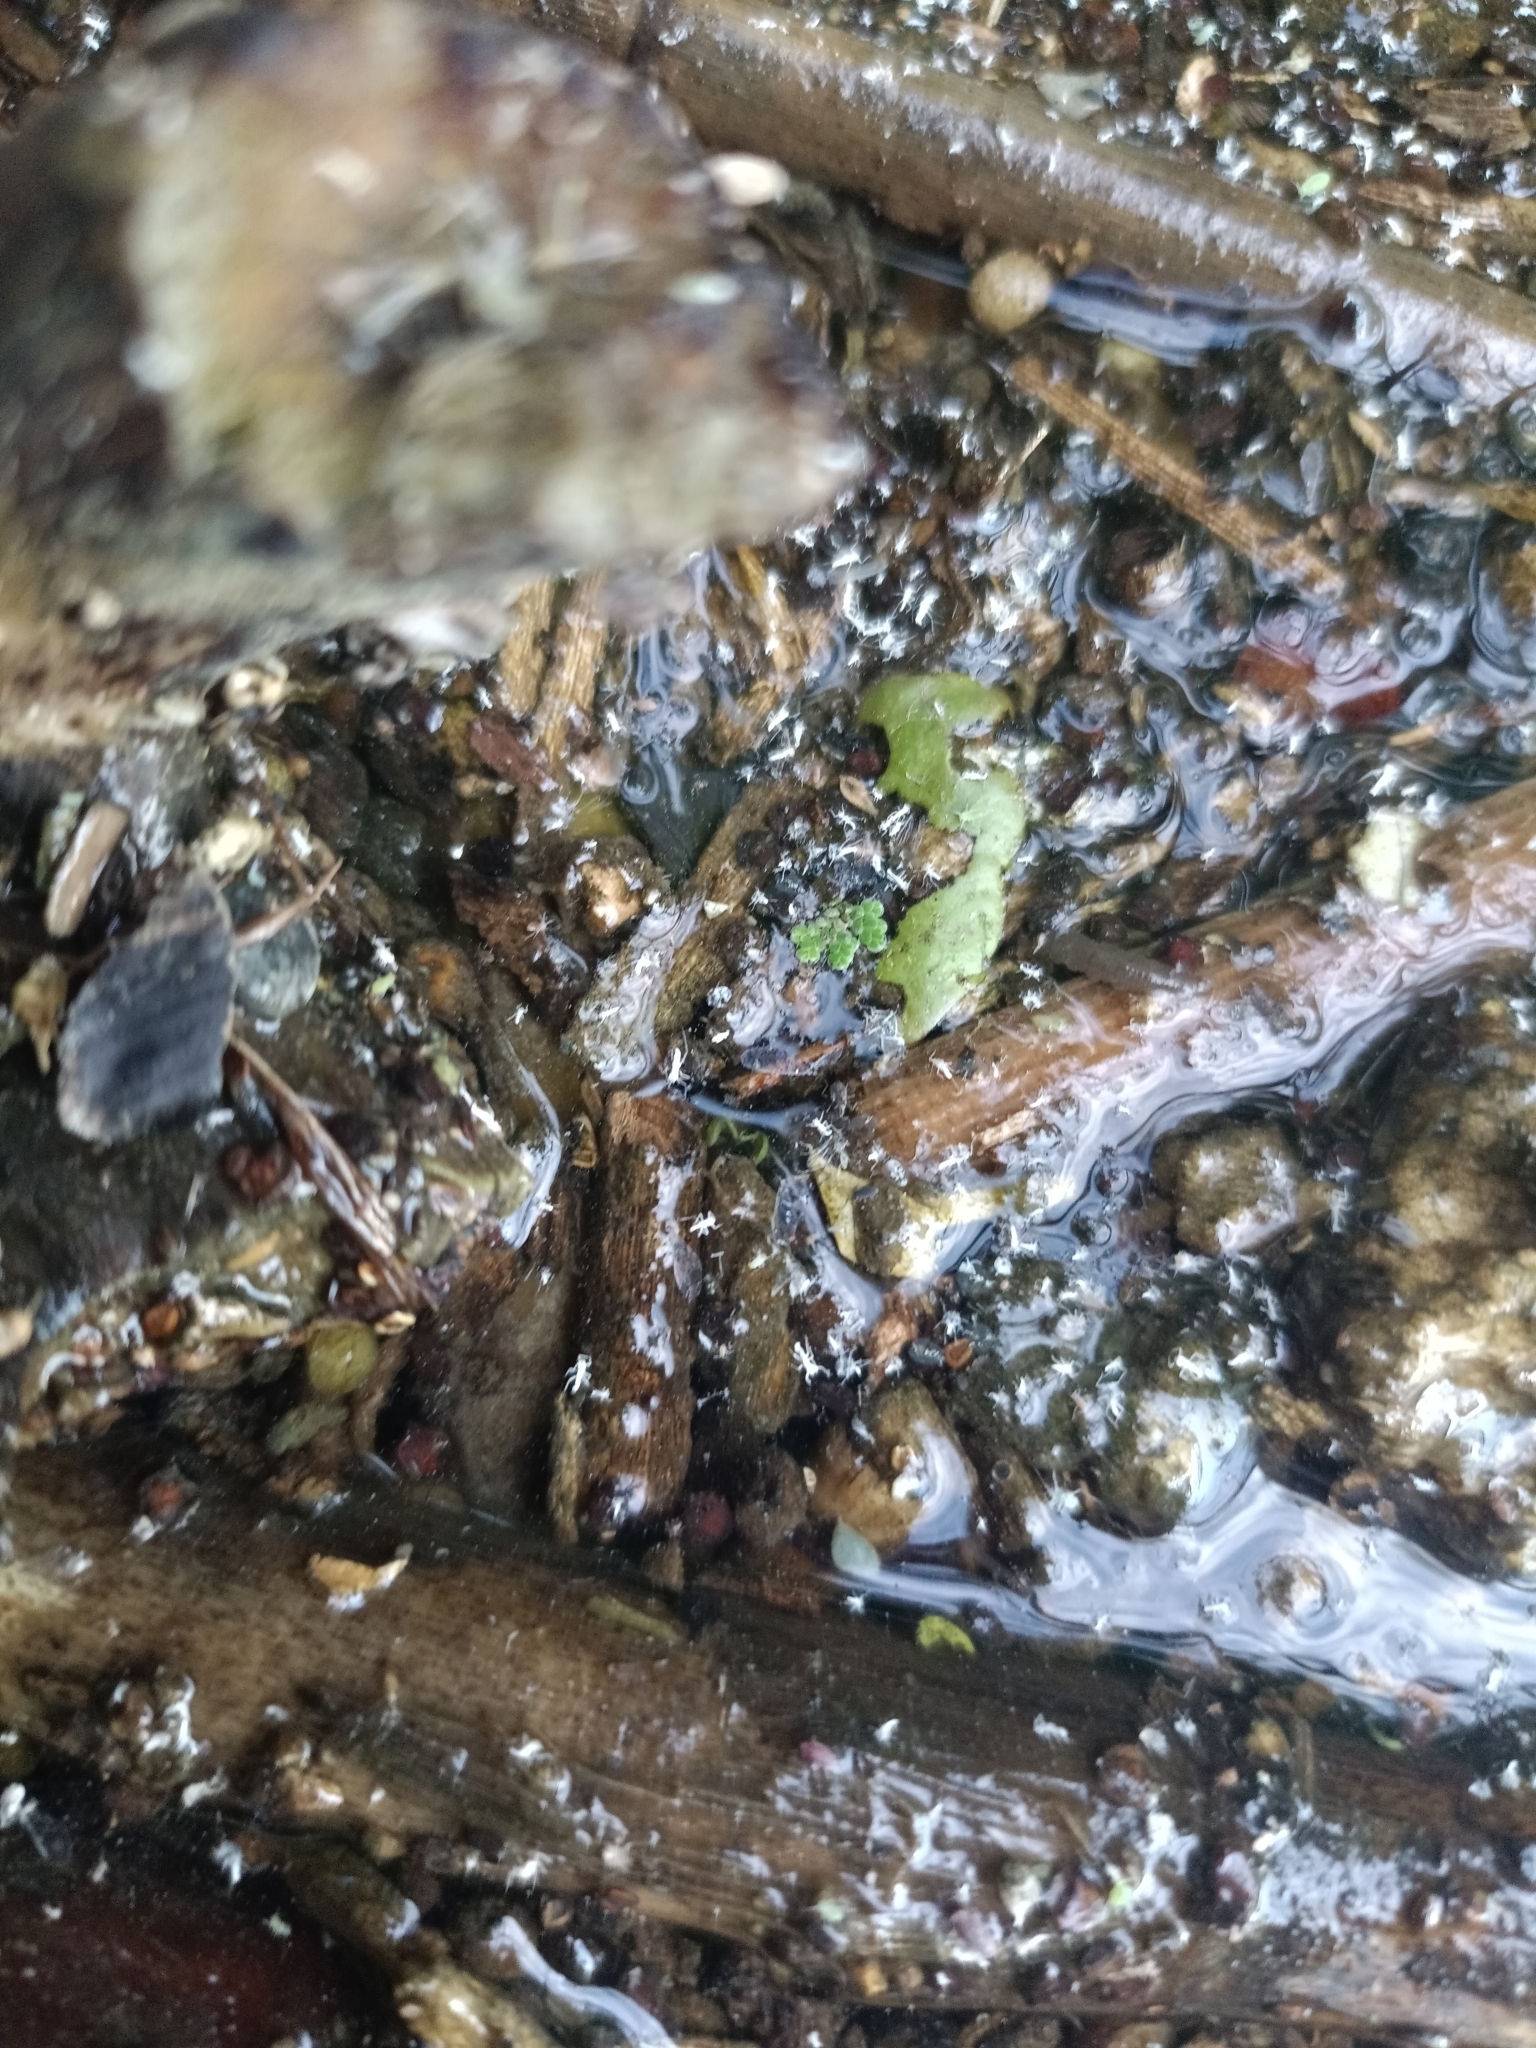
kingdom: Plantae
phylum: Tracheophyta
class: Polypodiopsida
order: Salviniales
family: Salviniaceae
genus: Azolla
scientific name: Azolla filiculoides
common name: Water fern
